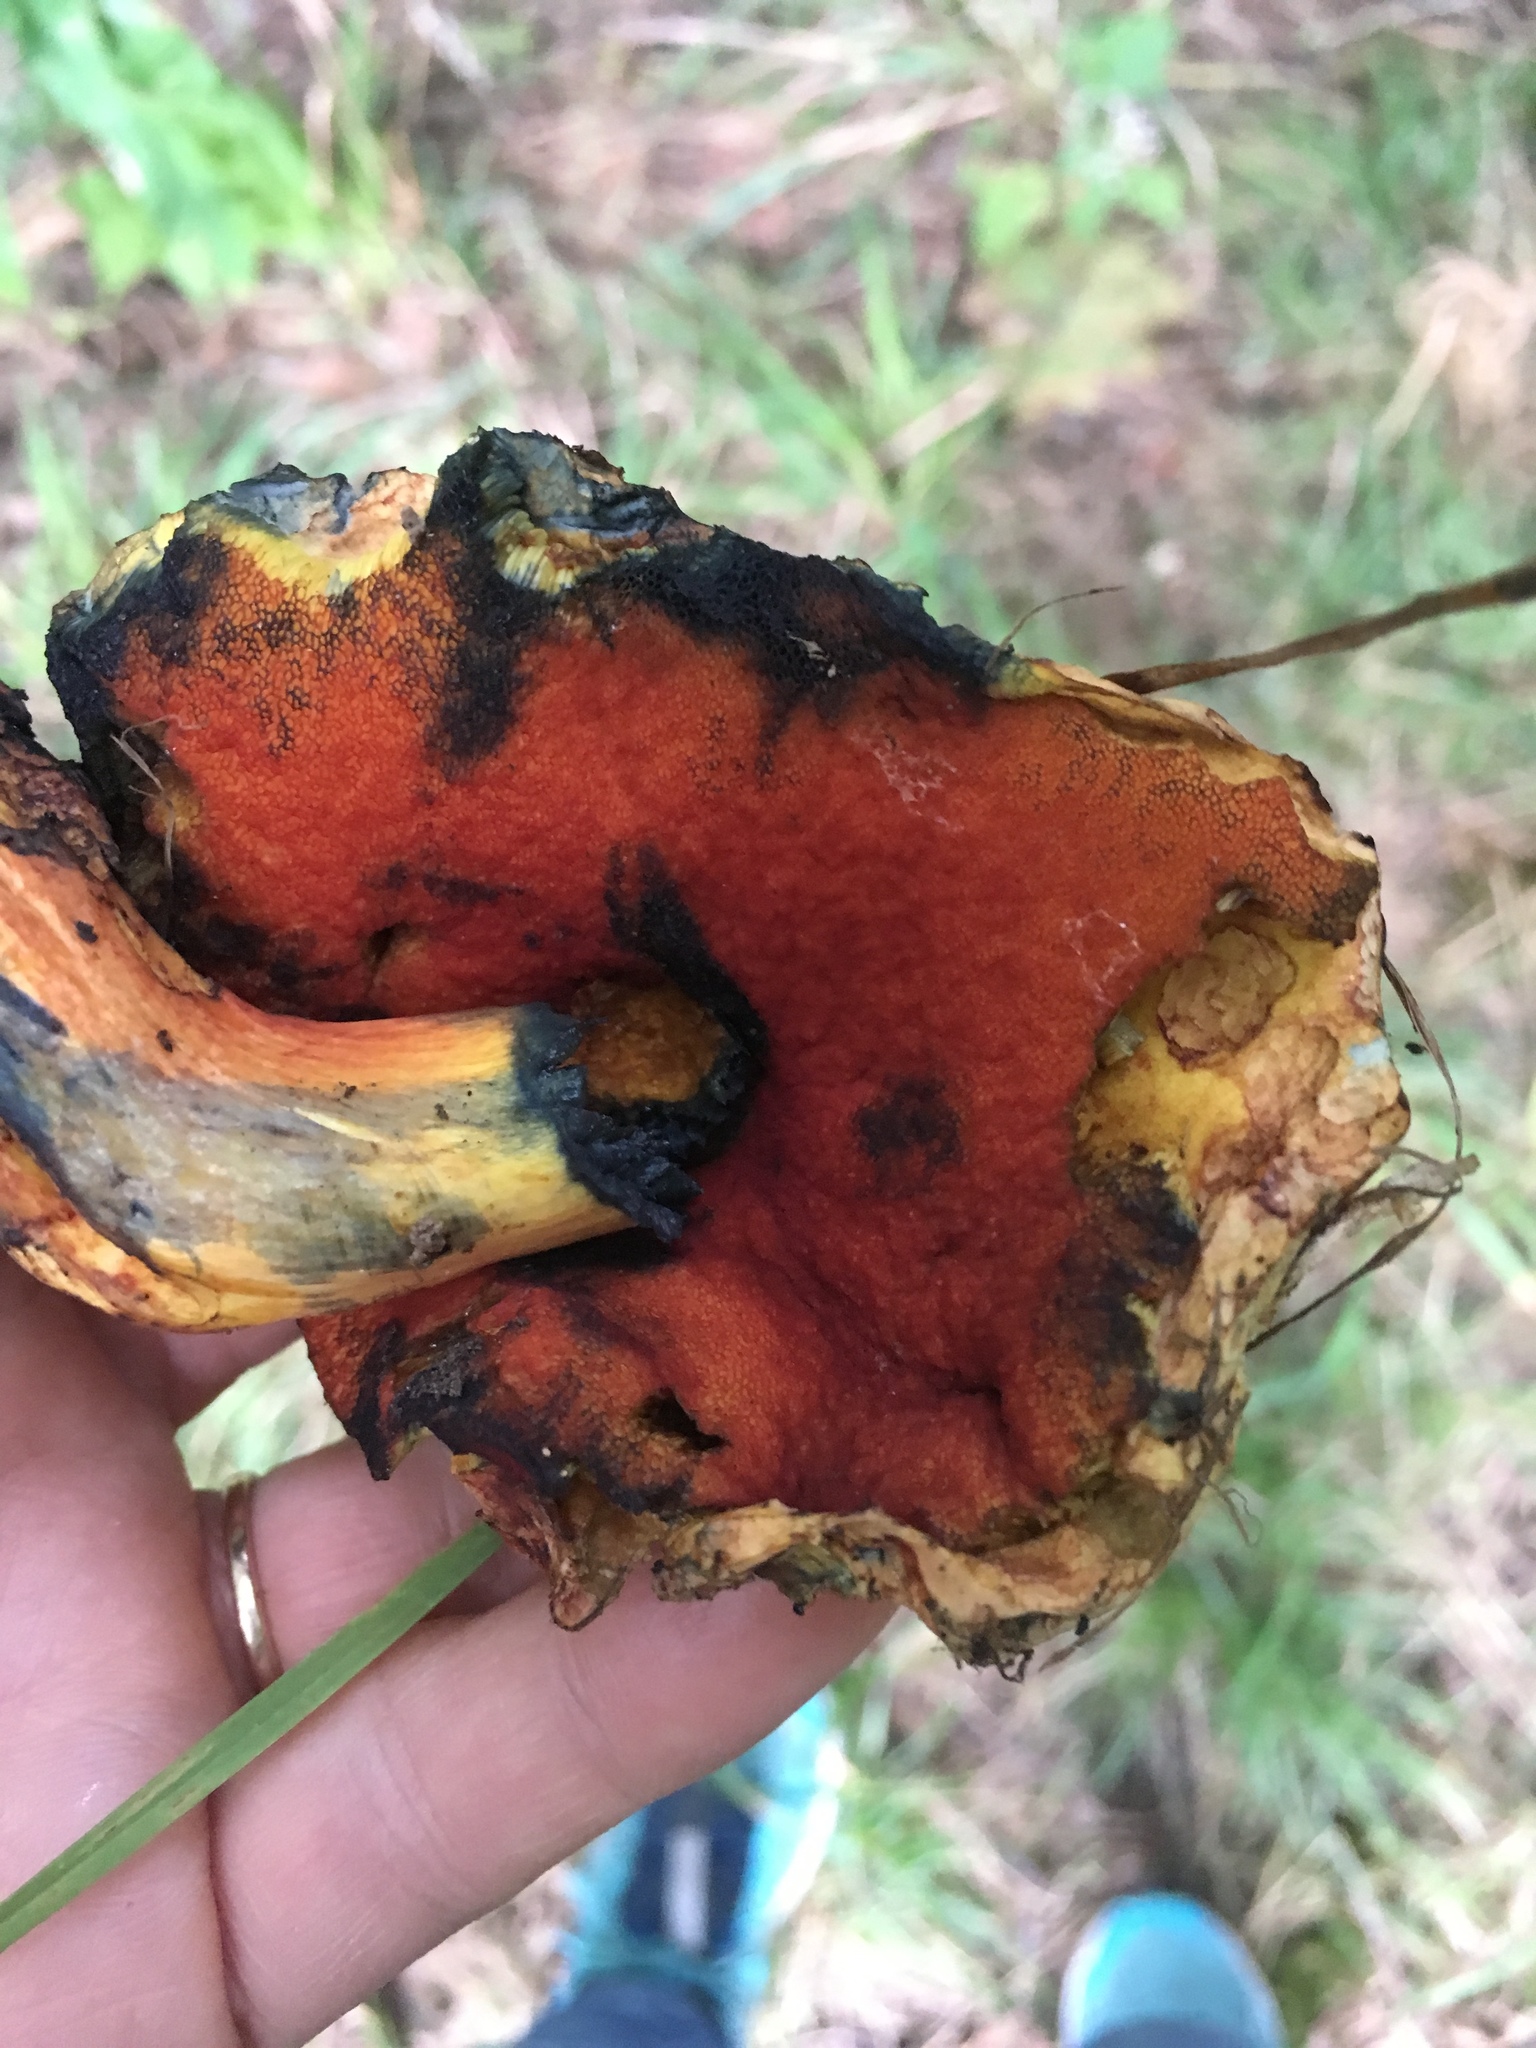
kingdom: Fungi
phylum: Basidiomycota
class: Agaricomycetes
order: Boletales
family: Boletaceae
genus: Boletus
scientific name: Boletus subvelutipes
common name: Red-mouth bolete
